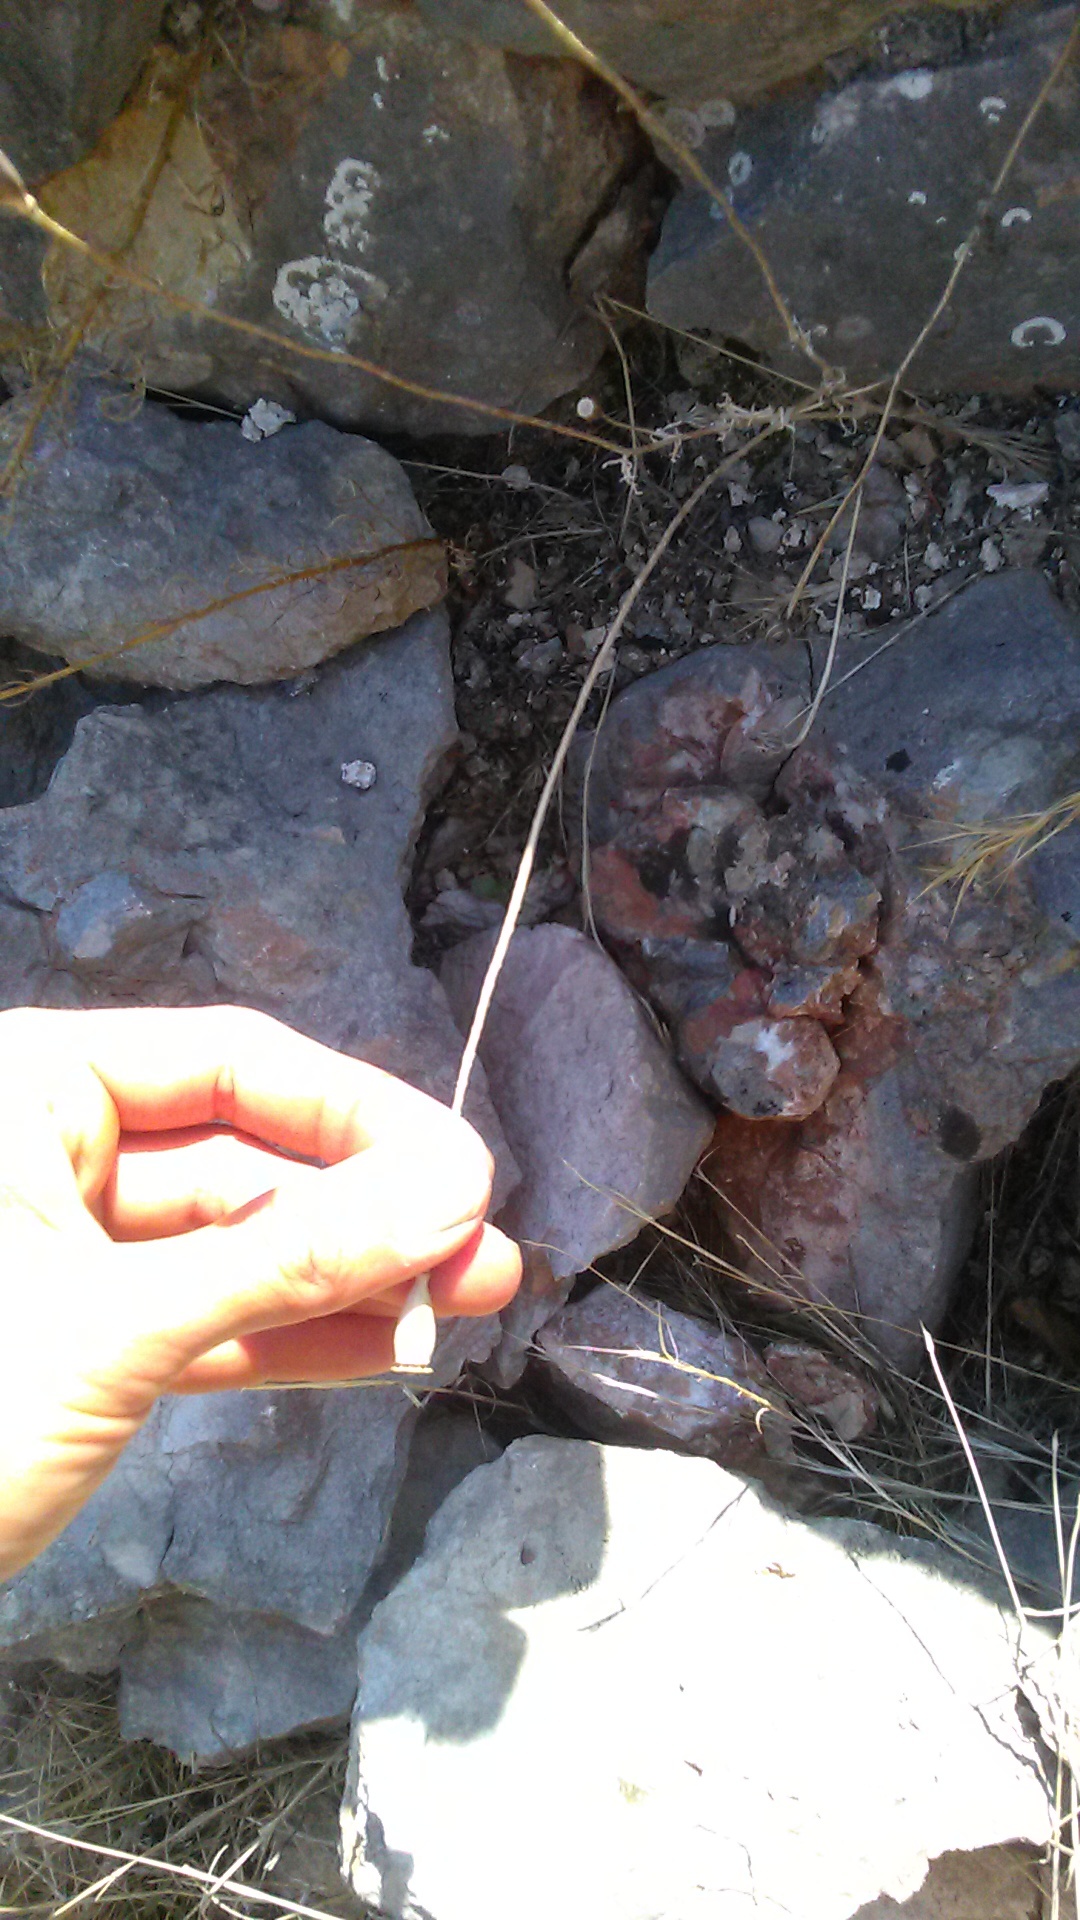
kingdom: Plantae
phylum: Tracheophyta
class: Magnoliopsida
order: Ranunculales
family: Papaveraceae
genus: Papaver
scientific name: Papaver rhoeas
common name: Corn poppy
